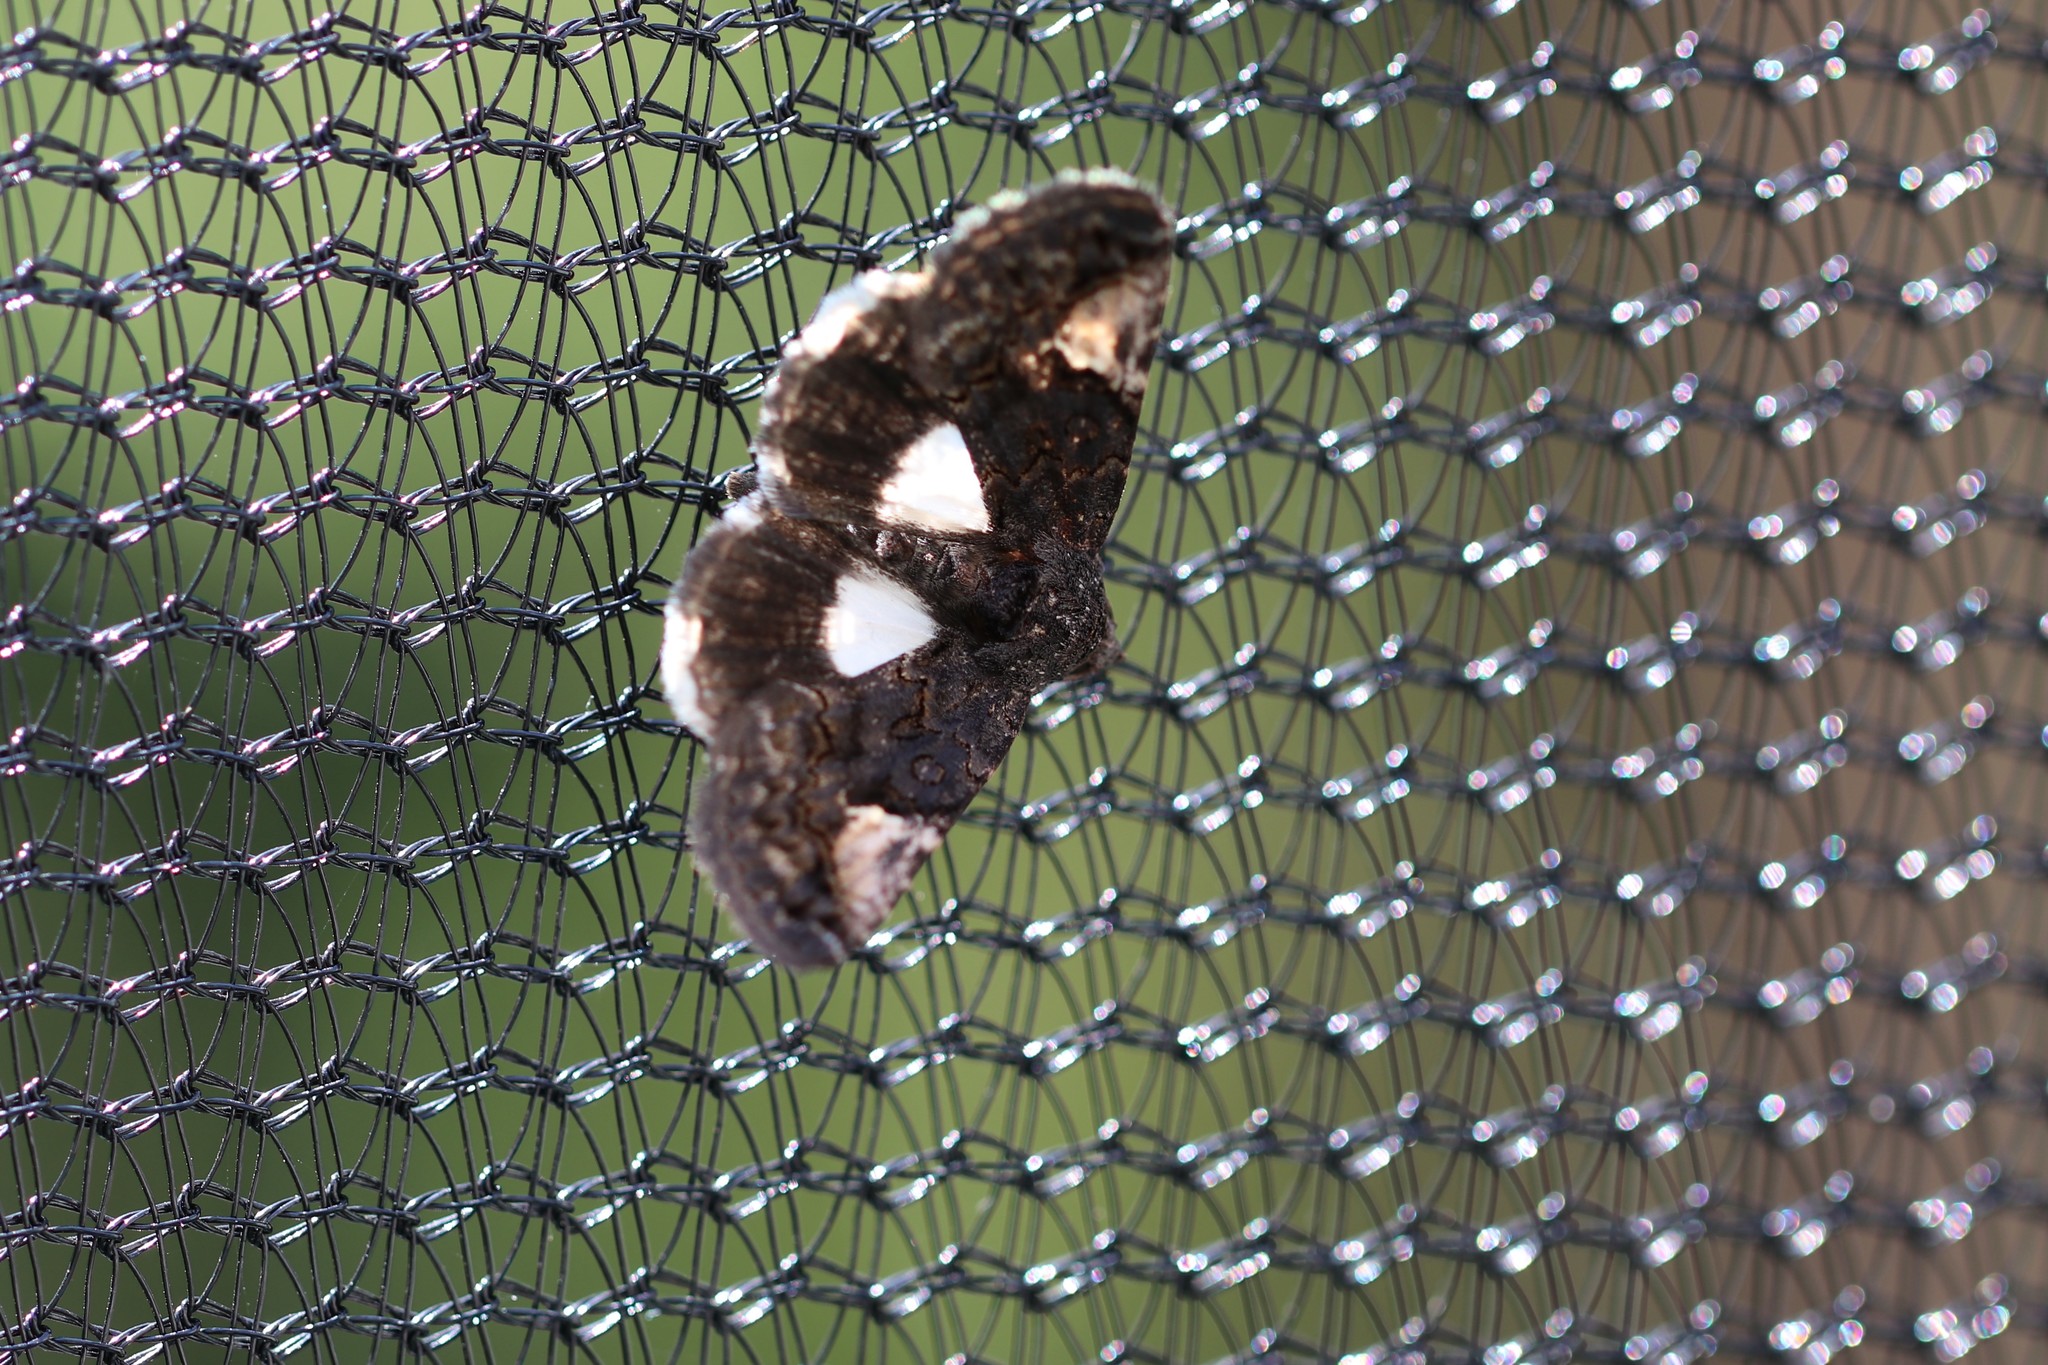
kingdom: Animalia
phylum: Arthropoda
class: Insecta
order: Lepidoptera
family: Noctuidae
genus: Aedia
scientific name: Aedia funesta
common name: The druid
